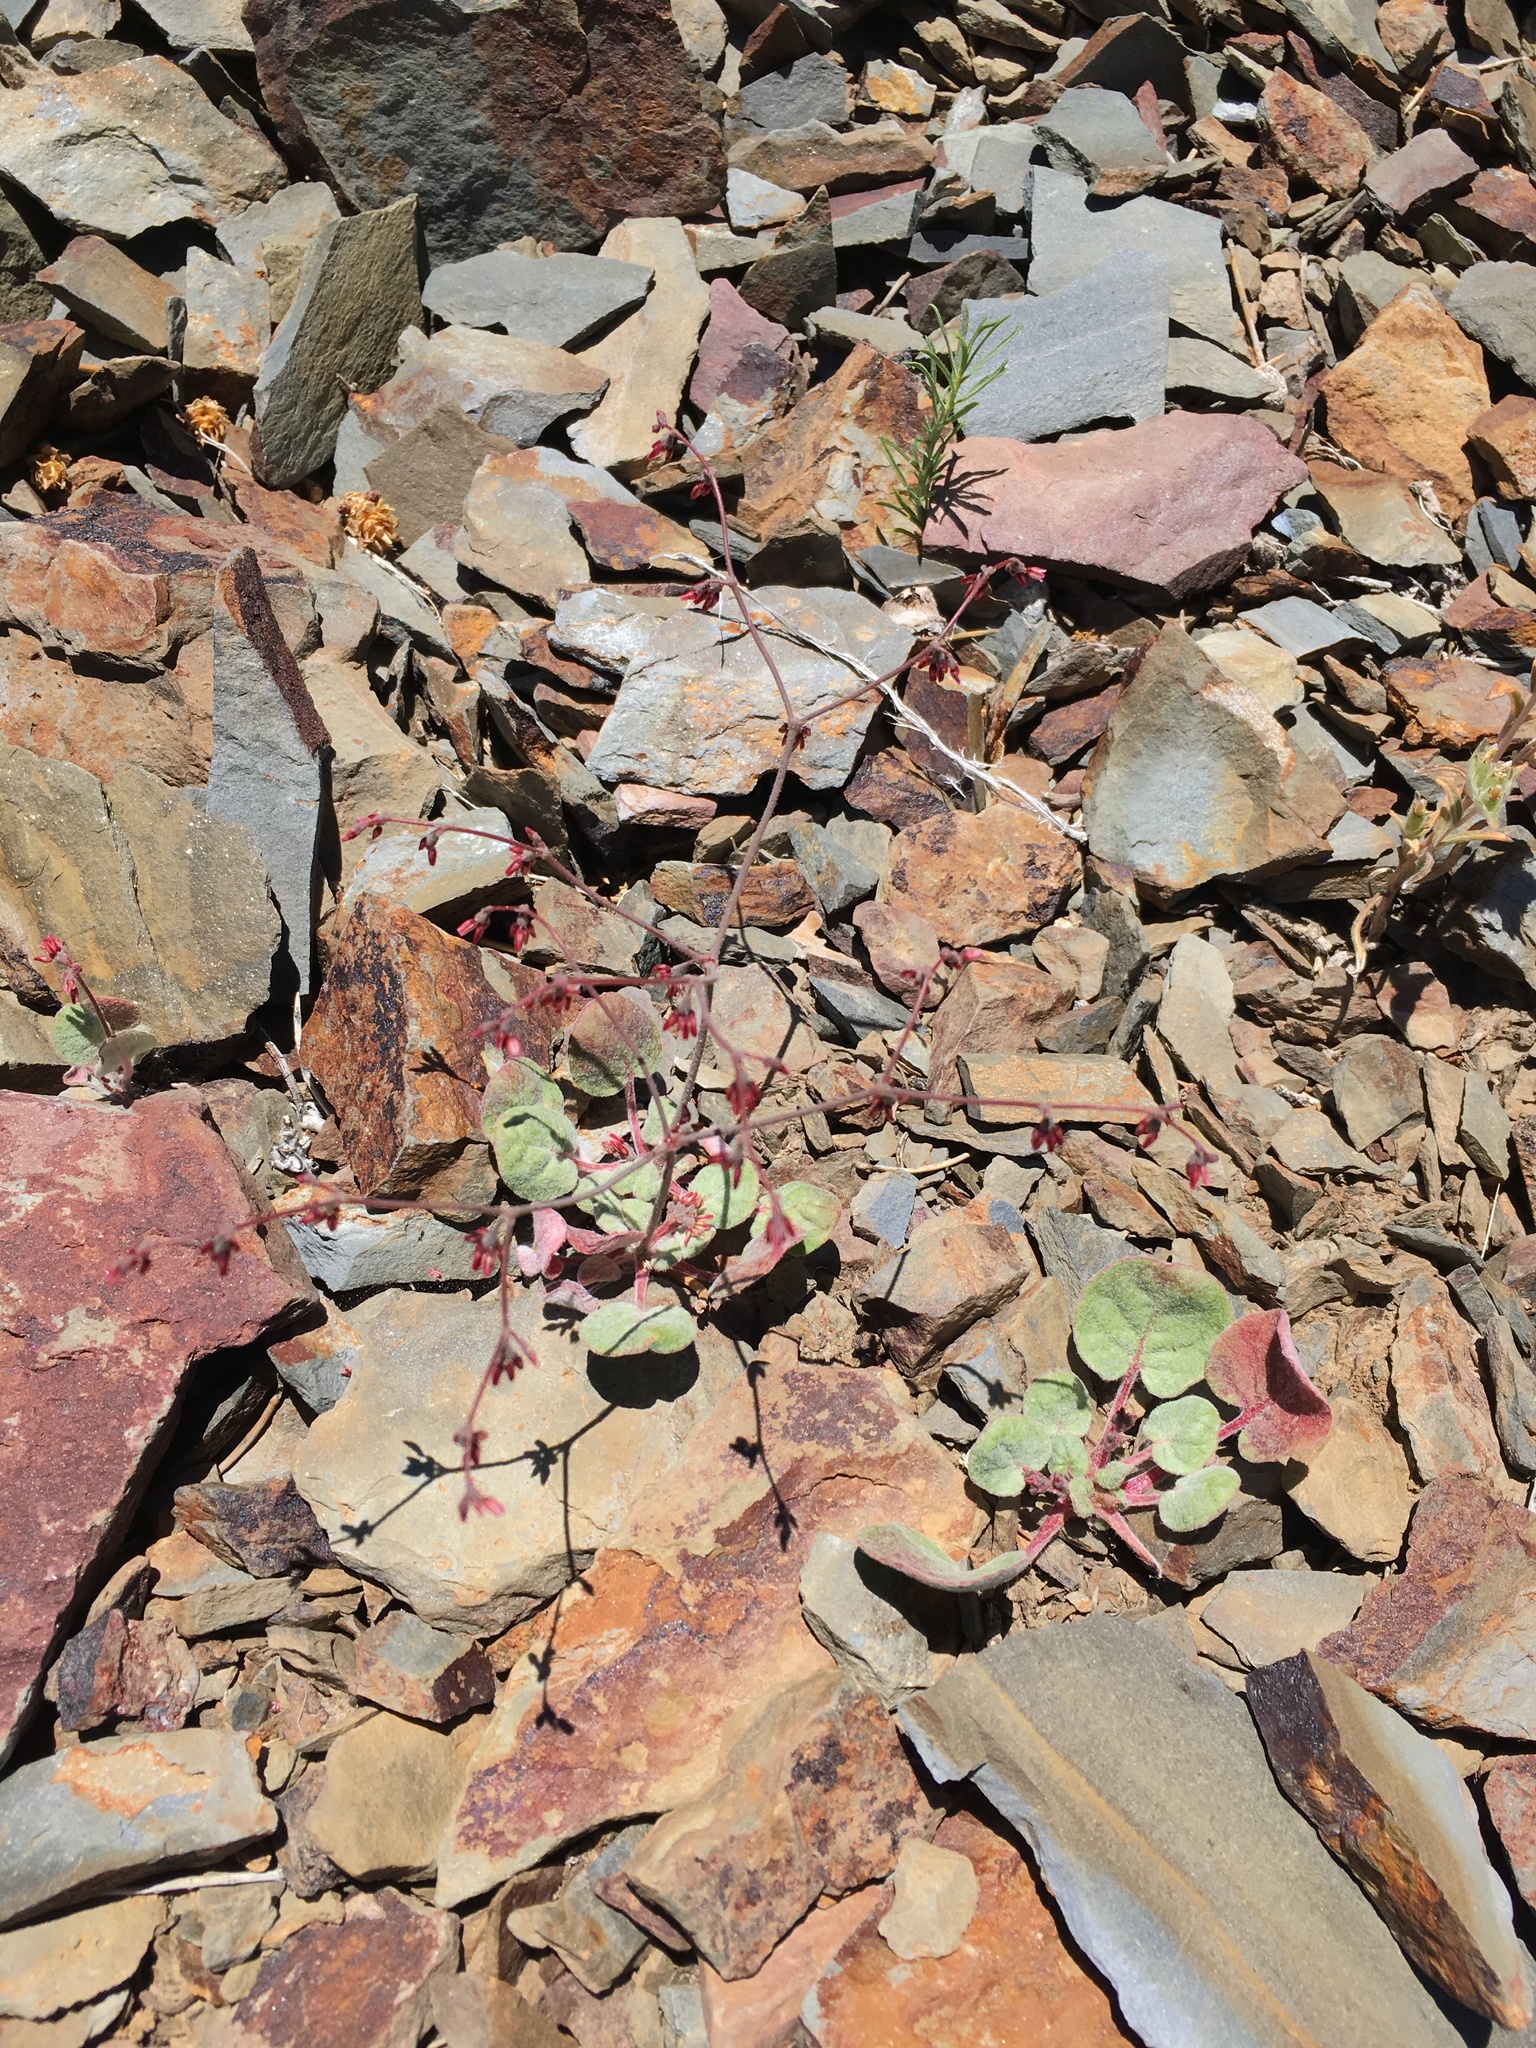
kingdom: Plantae
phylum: Tracheophyta
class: Magnoliopsida
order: Caryophyllales
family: Polygonaceae
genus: Eriogonum
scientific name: Eriogonum eremicola
